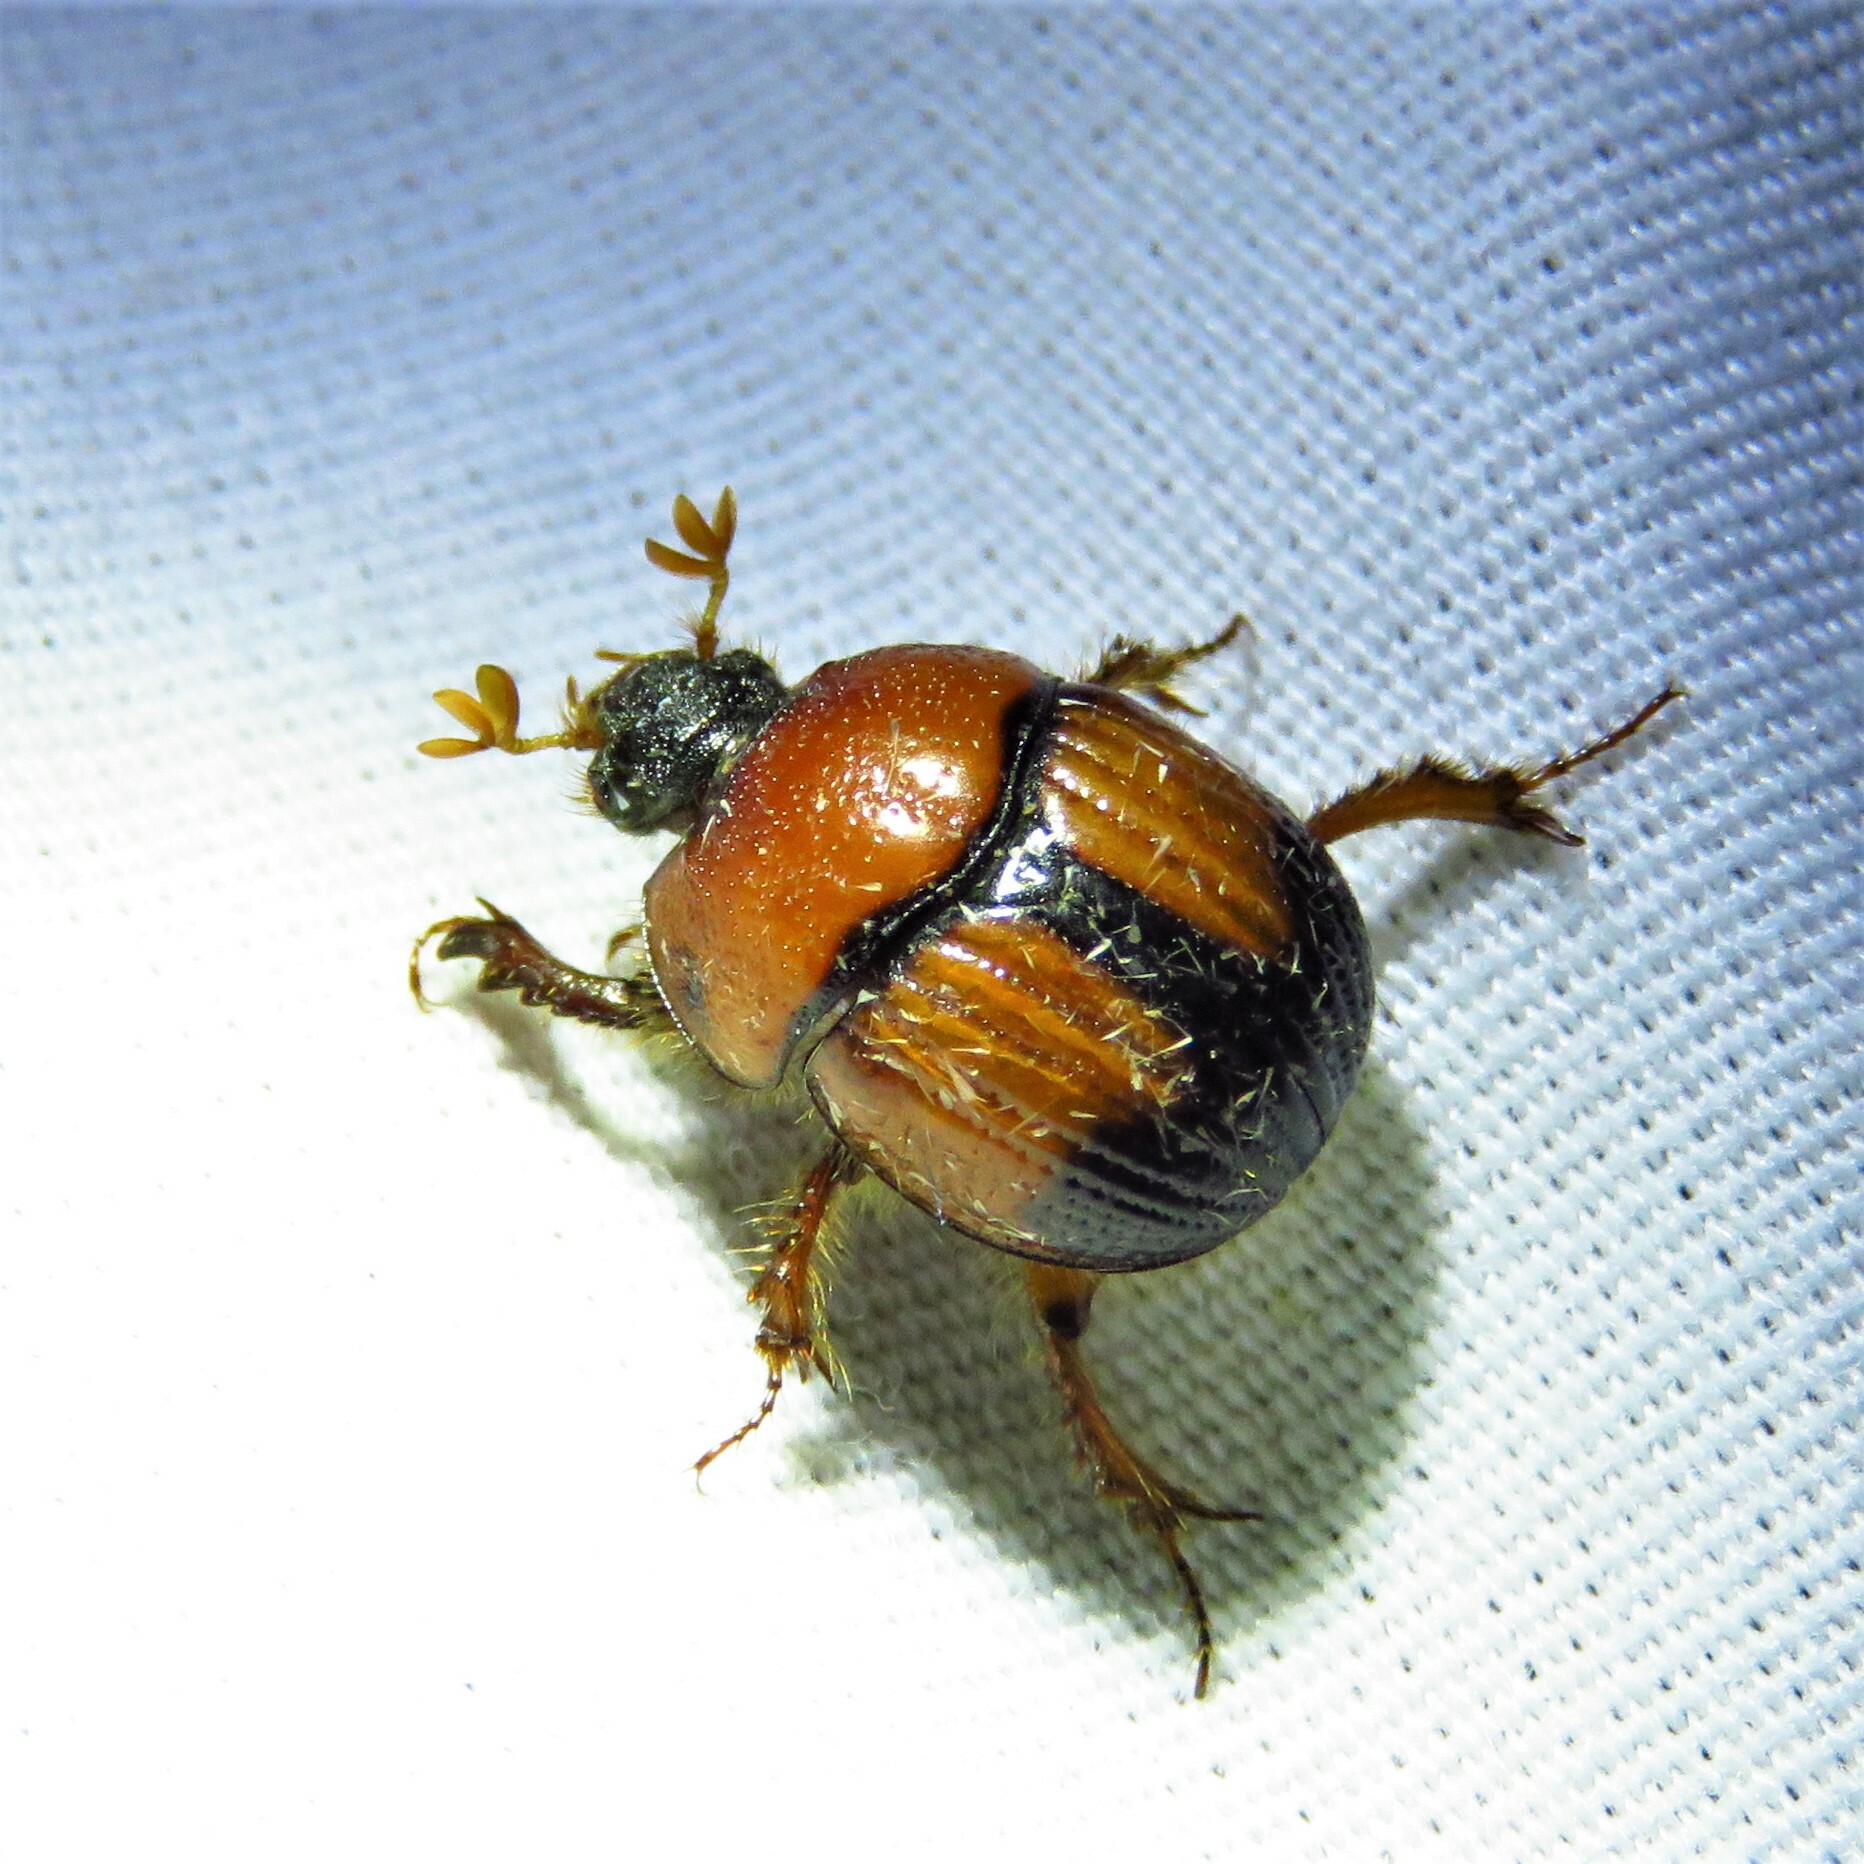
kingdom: Animalia
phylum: Arthropoda
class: Insecta
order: Coleoptera
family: Geotrupidae
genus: Bolbocerosoma
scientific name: Bolbocerosoma pusillum
